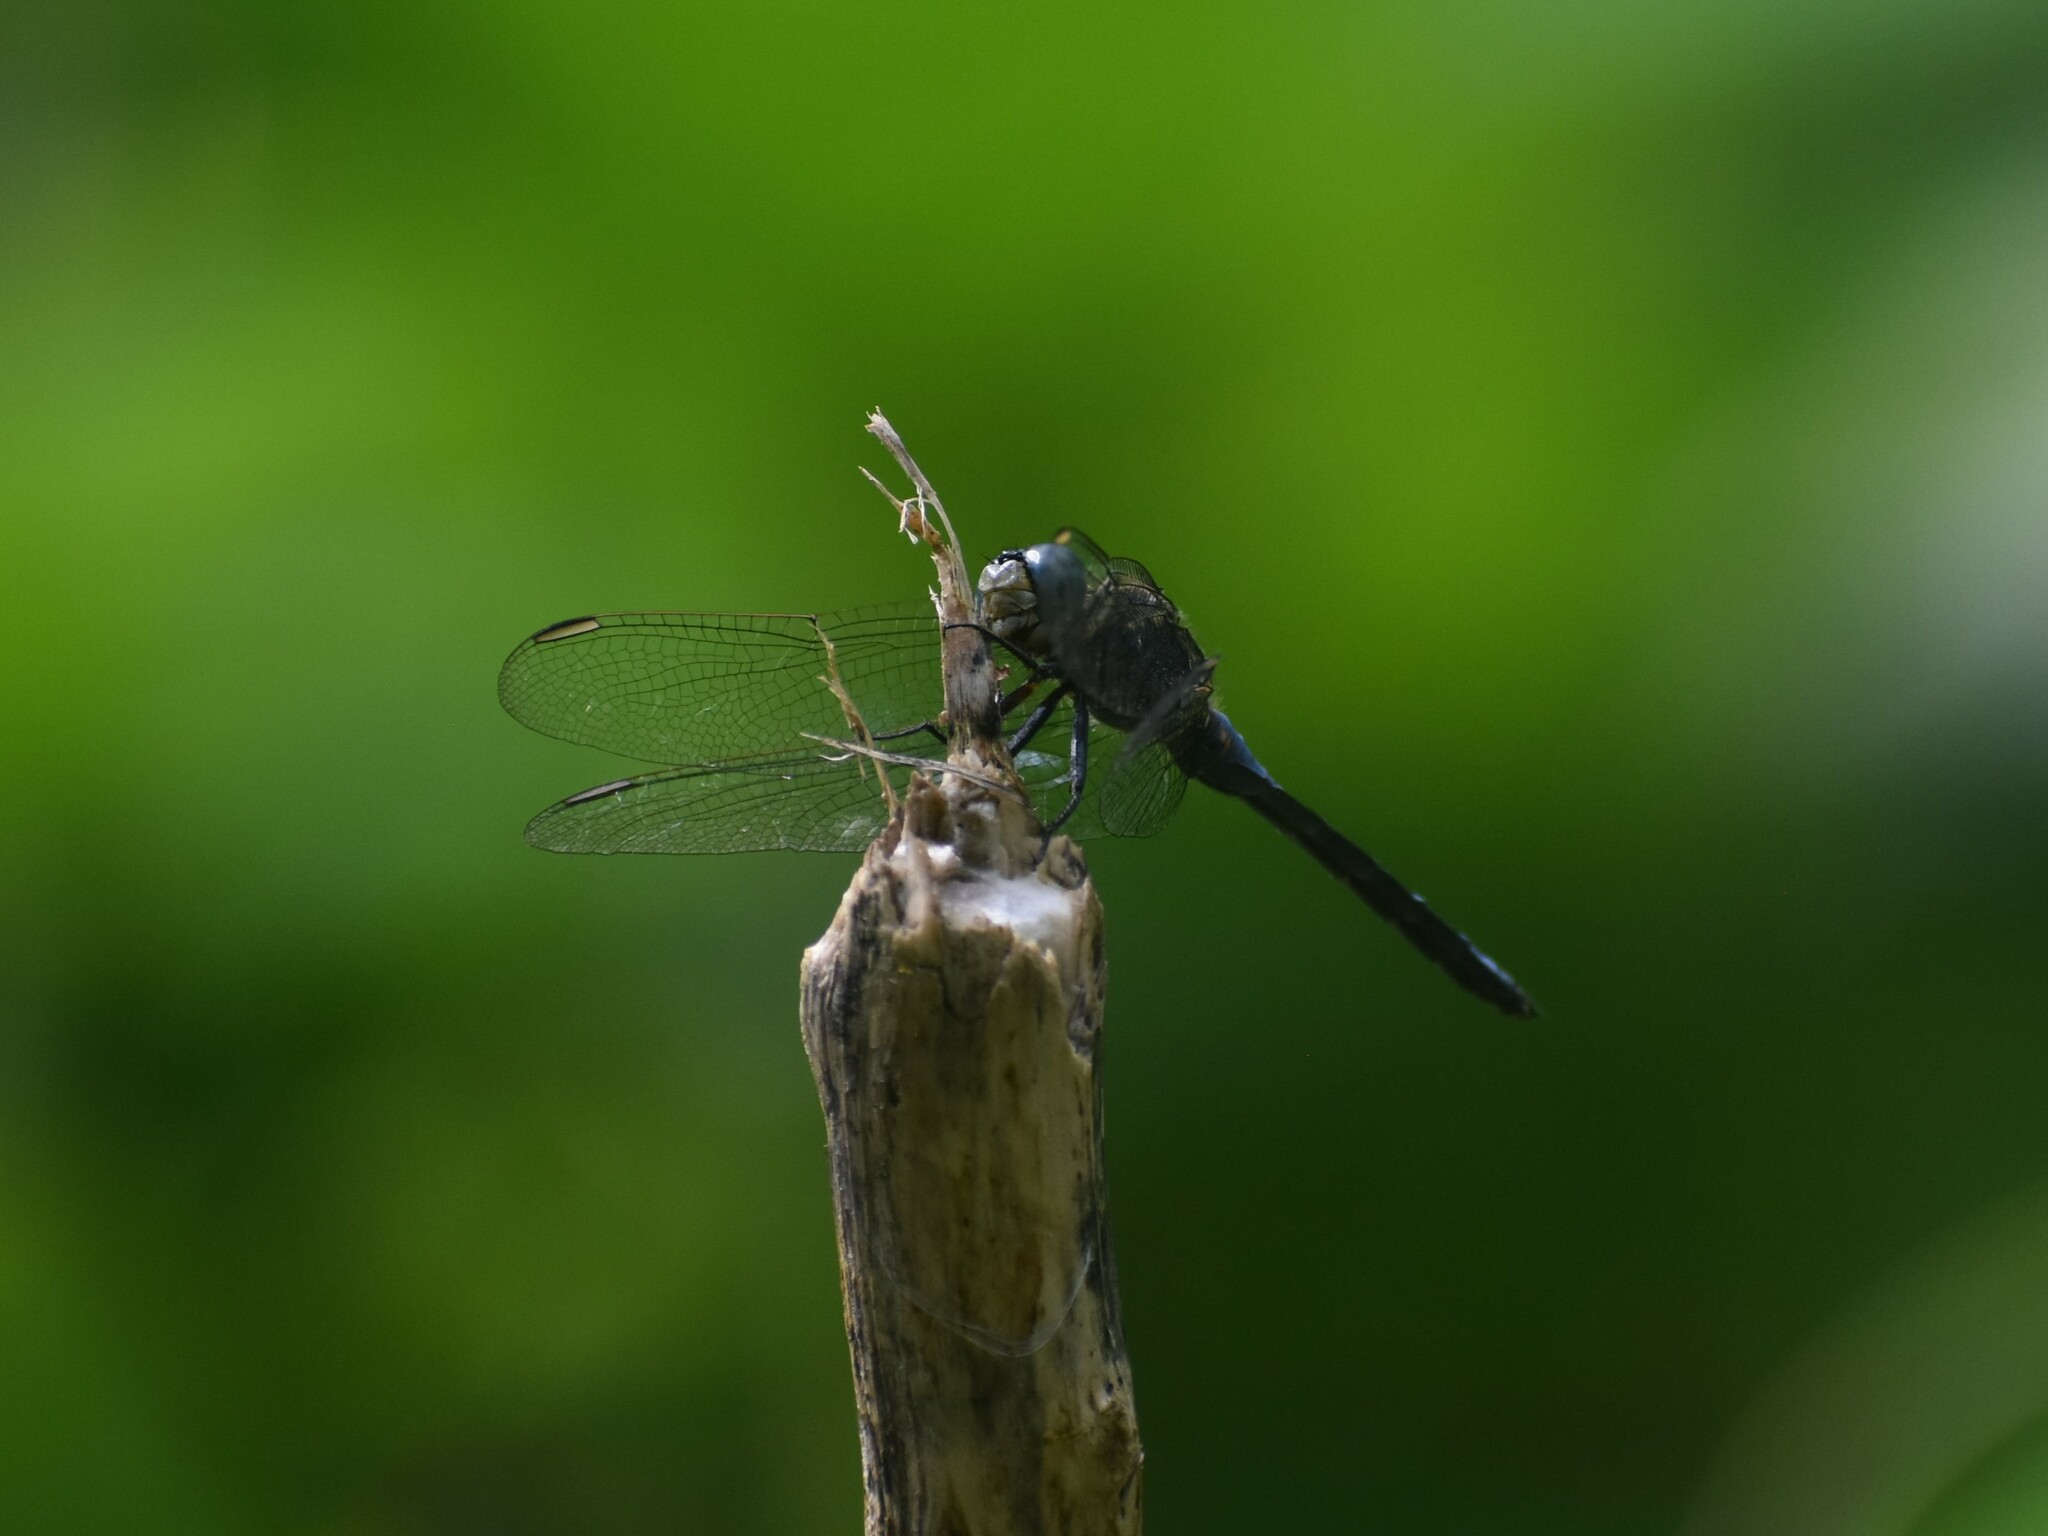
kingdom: Animalia
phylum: Arthropoda
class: Insecta
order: Odonata
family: Libellulidae
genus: Orthetrum
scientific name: Orthetrum luzonicum
